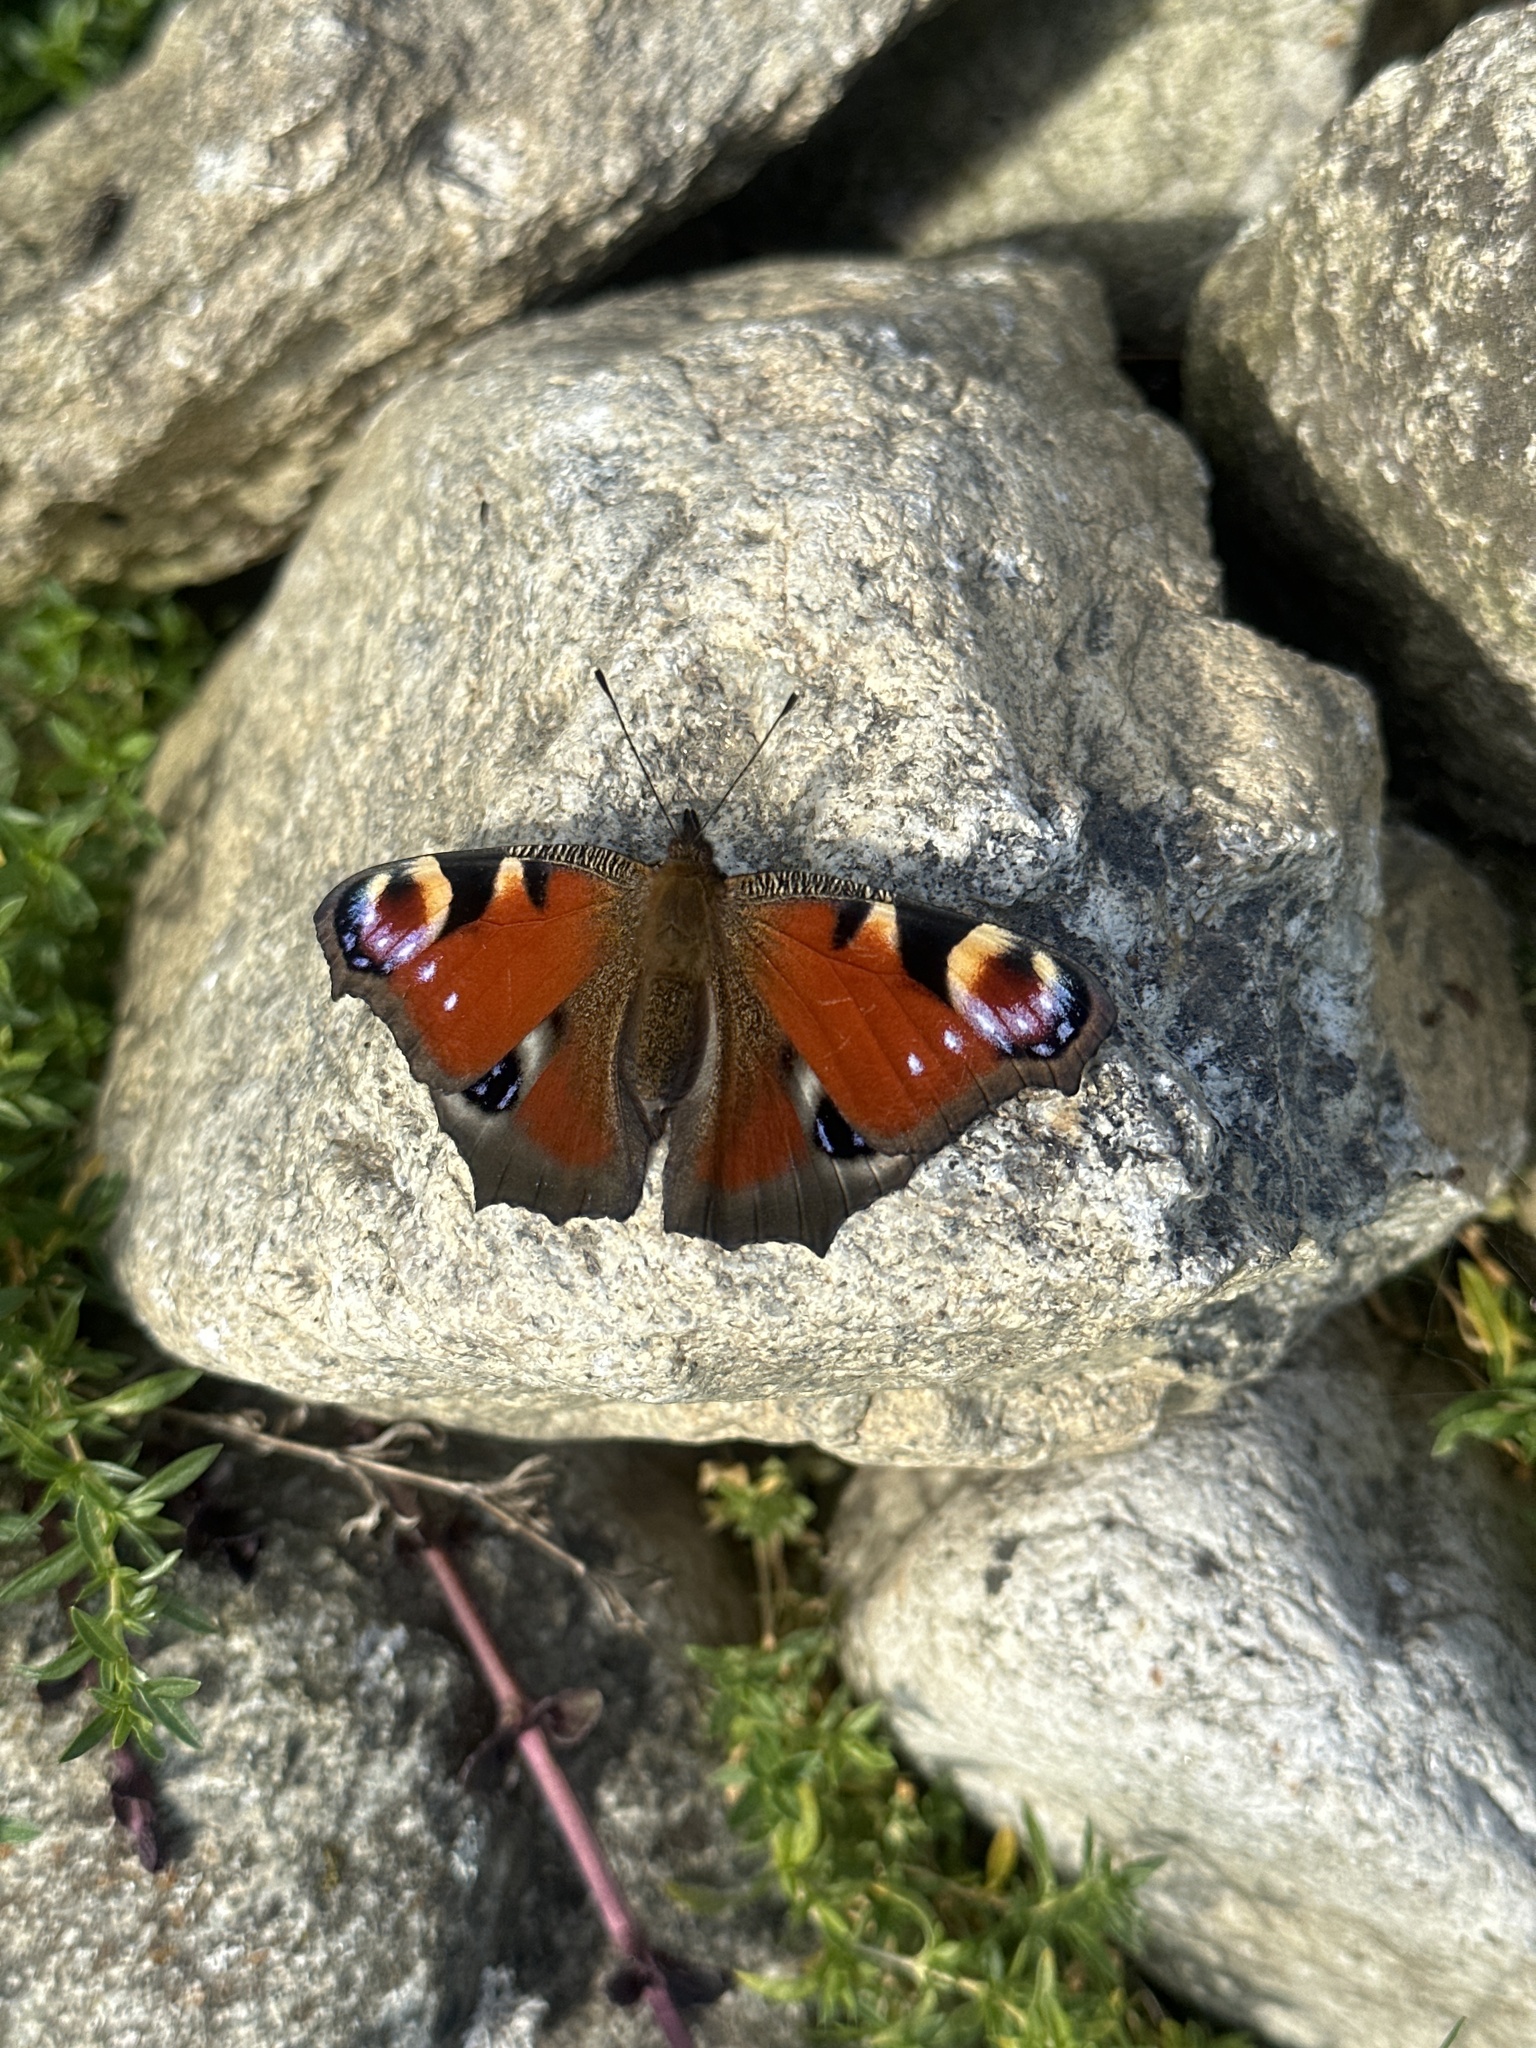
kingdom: Animalia
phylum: Arthropoda
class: Insecta
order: Lepidoptera
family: Nymphalidae
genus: Aglais
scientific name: Aglais io
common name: Peacock
